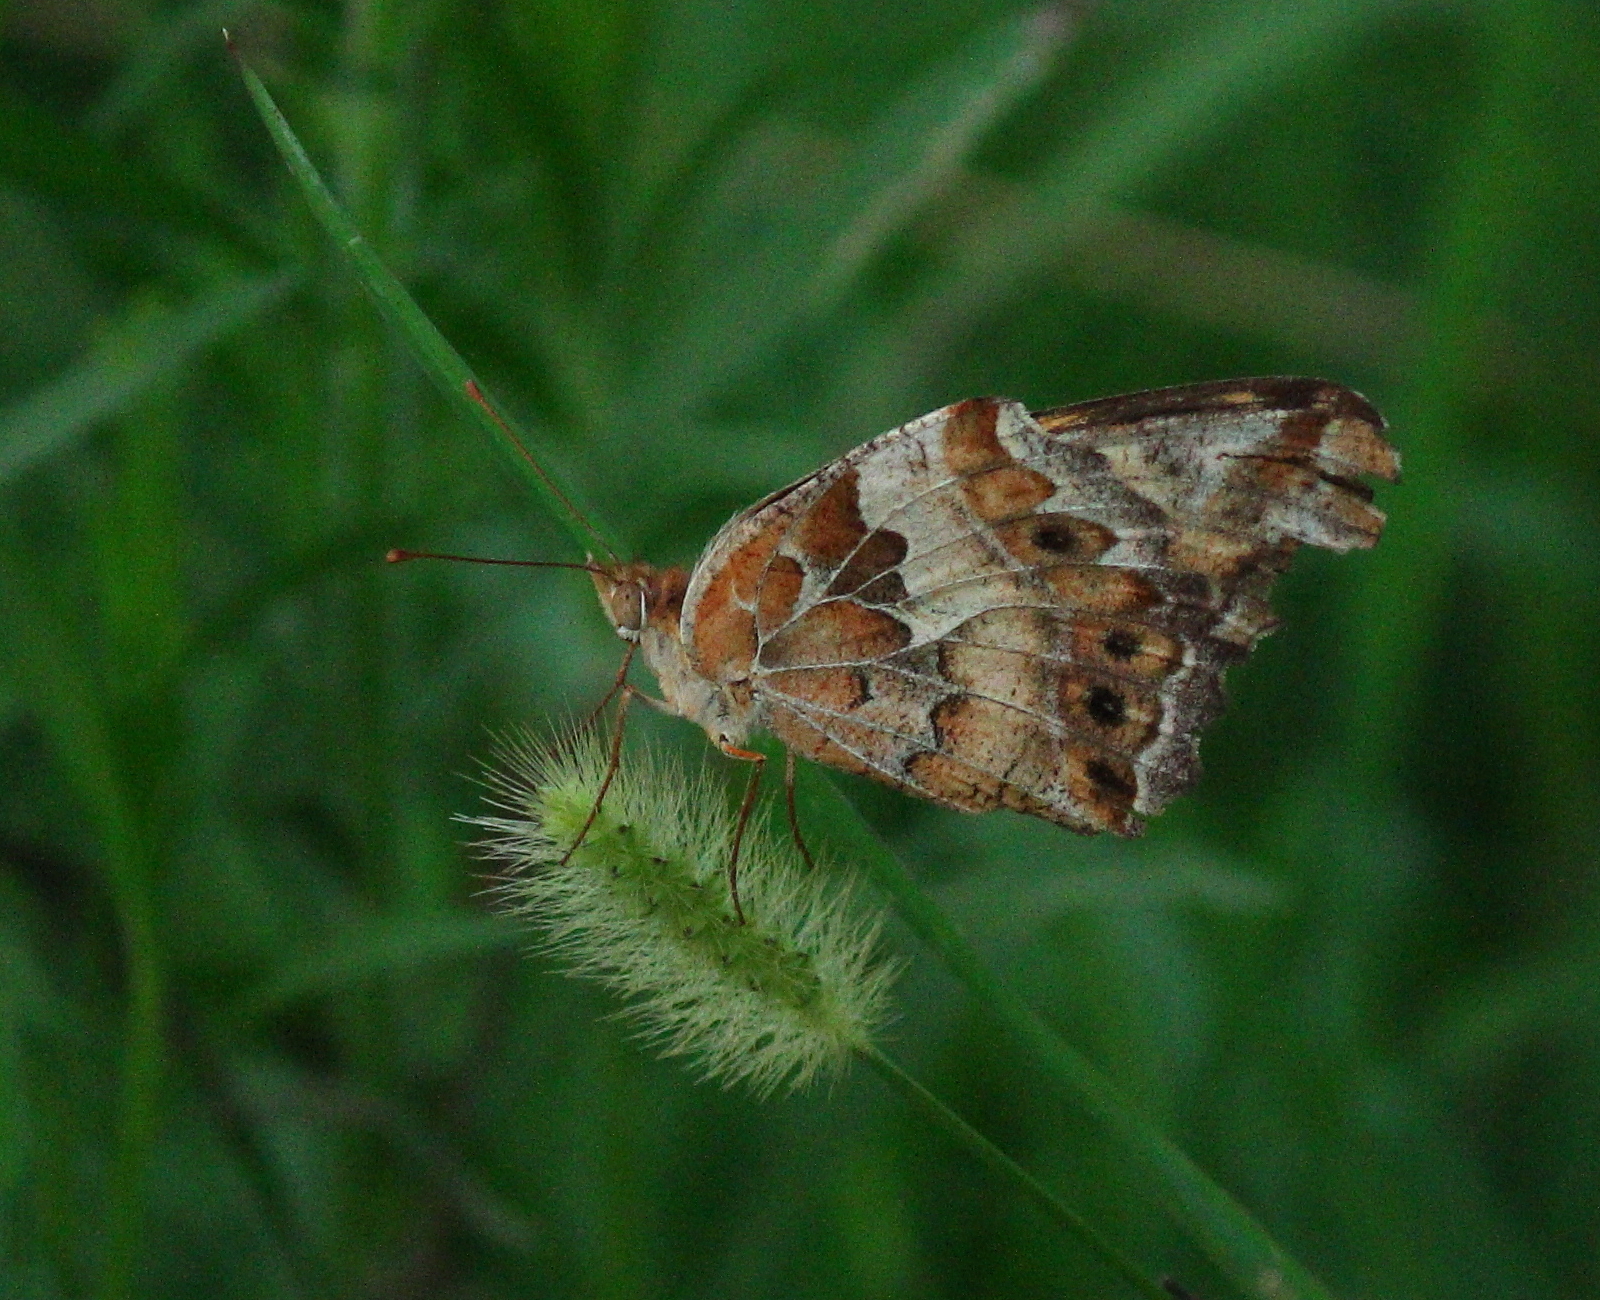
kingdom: Animalia
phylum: Arthropoda
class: Insecta
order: Lepidoptera
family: Nymphalidae
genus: Euptoieta
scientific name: Euptoieta claudia
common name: Variegated fritillary
